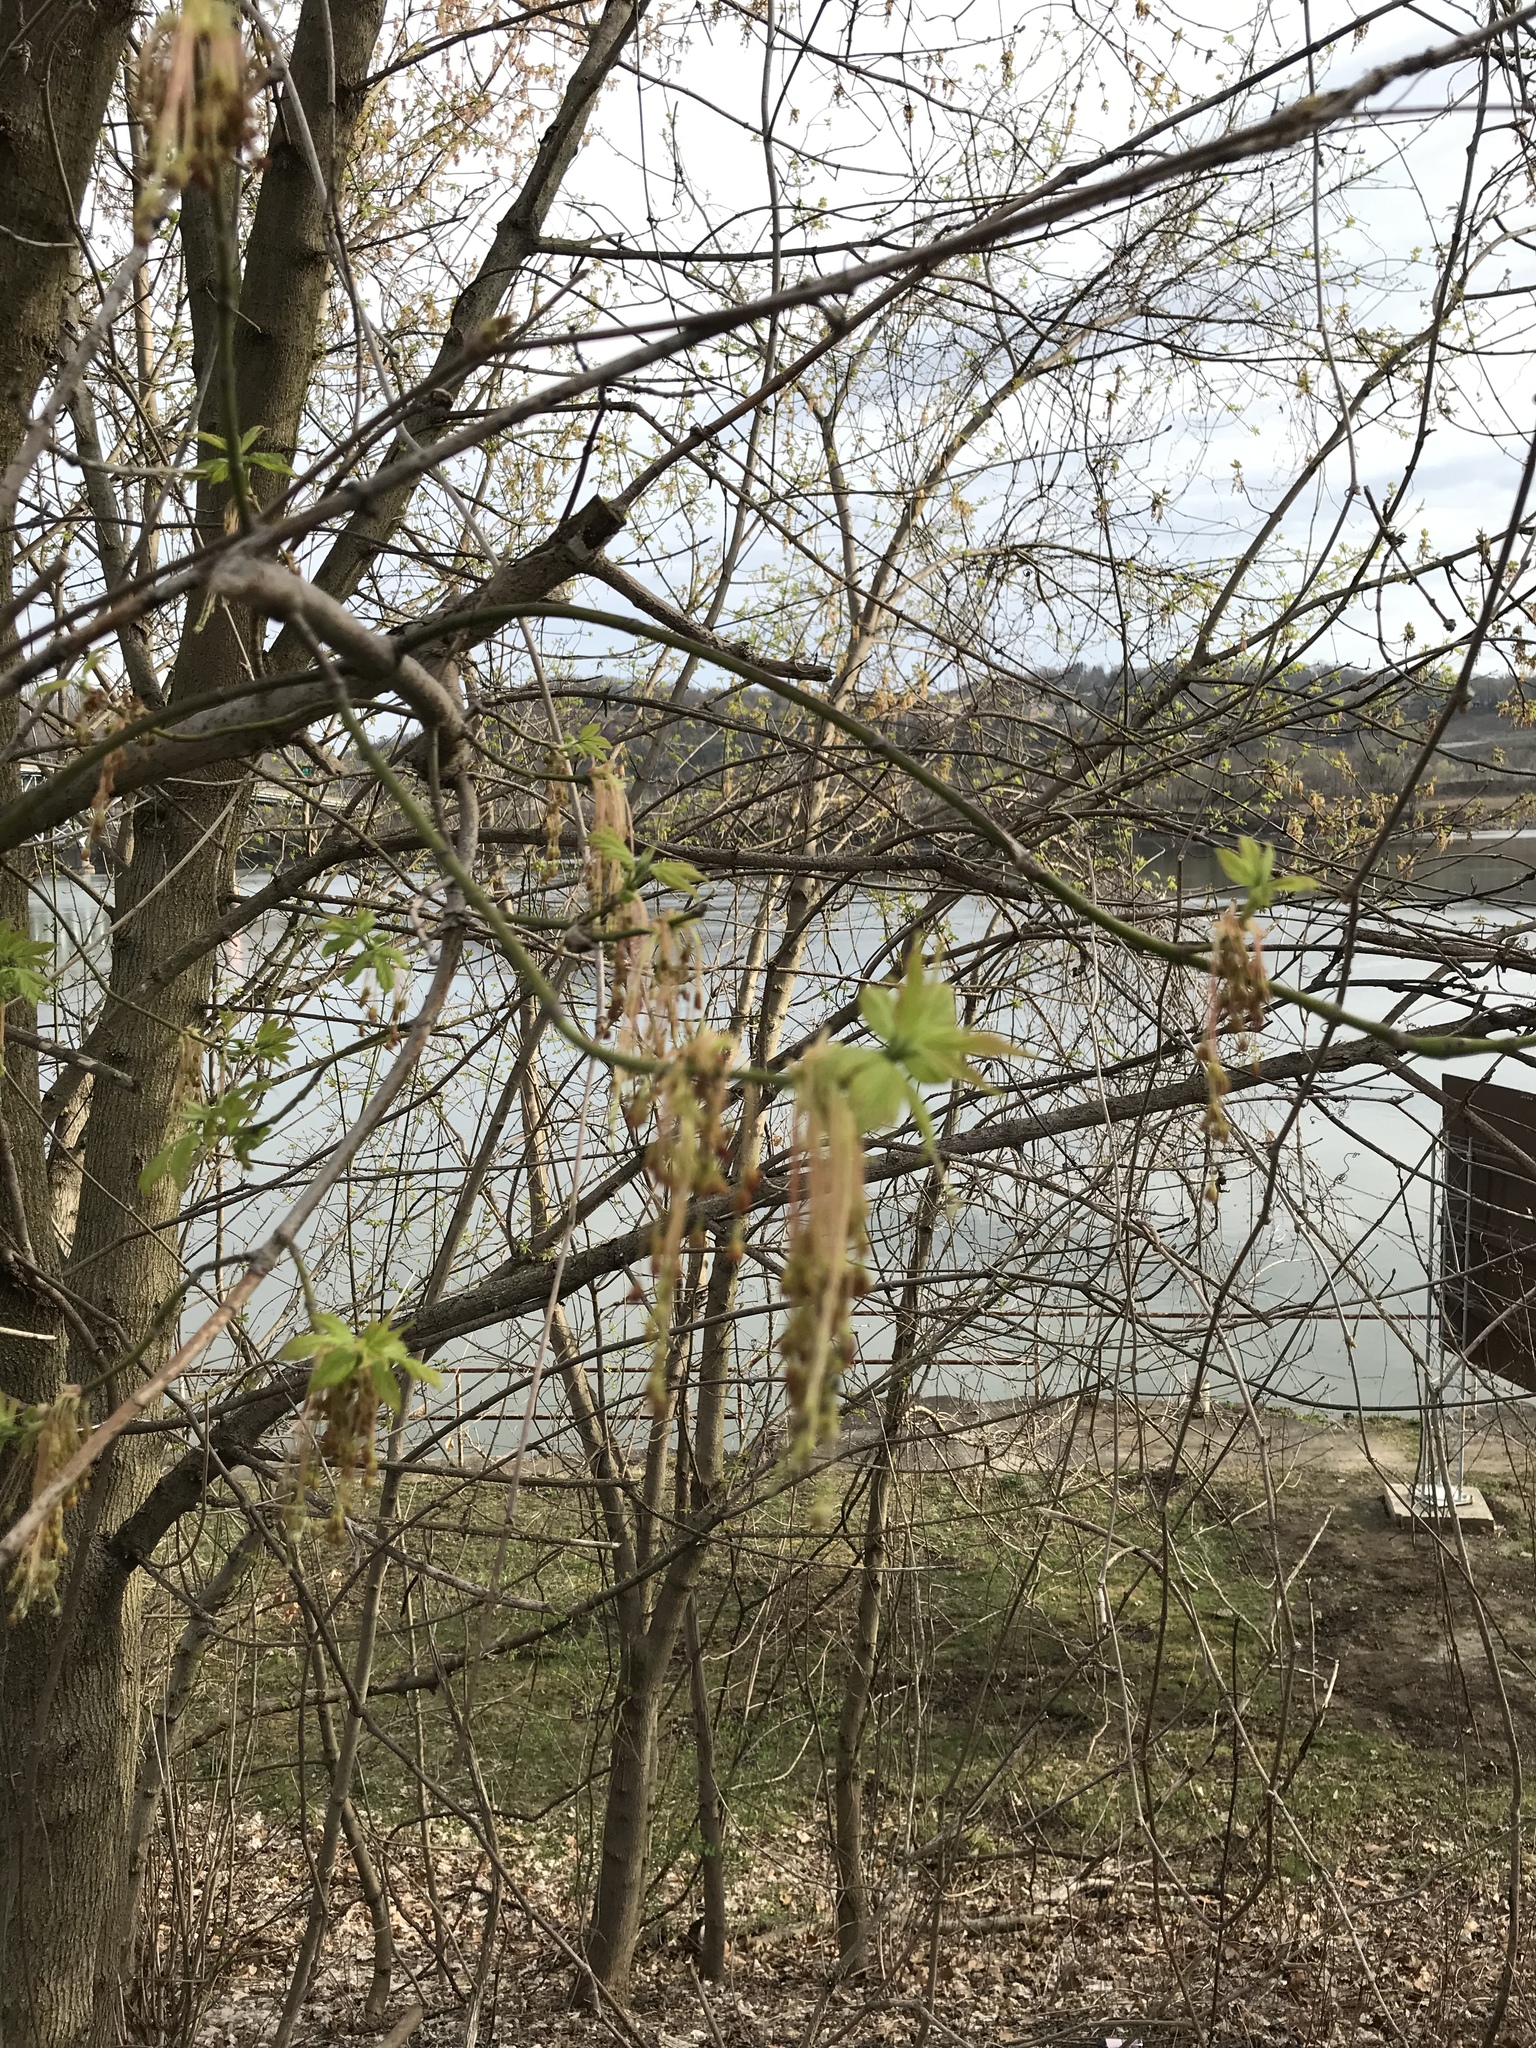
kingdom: Plantae
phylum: Tracheophyta
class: Magnoliopsida
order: Sapindales
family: Sapindaceae
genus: Acer
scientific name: Acer negundo
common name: Ashleaf maple
